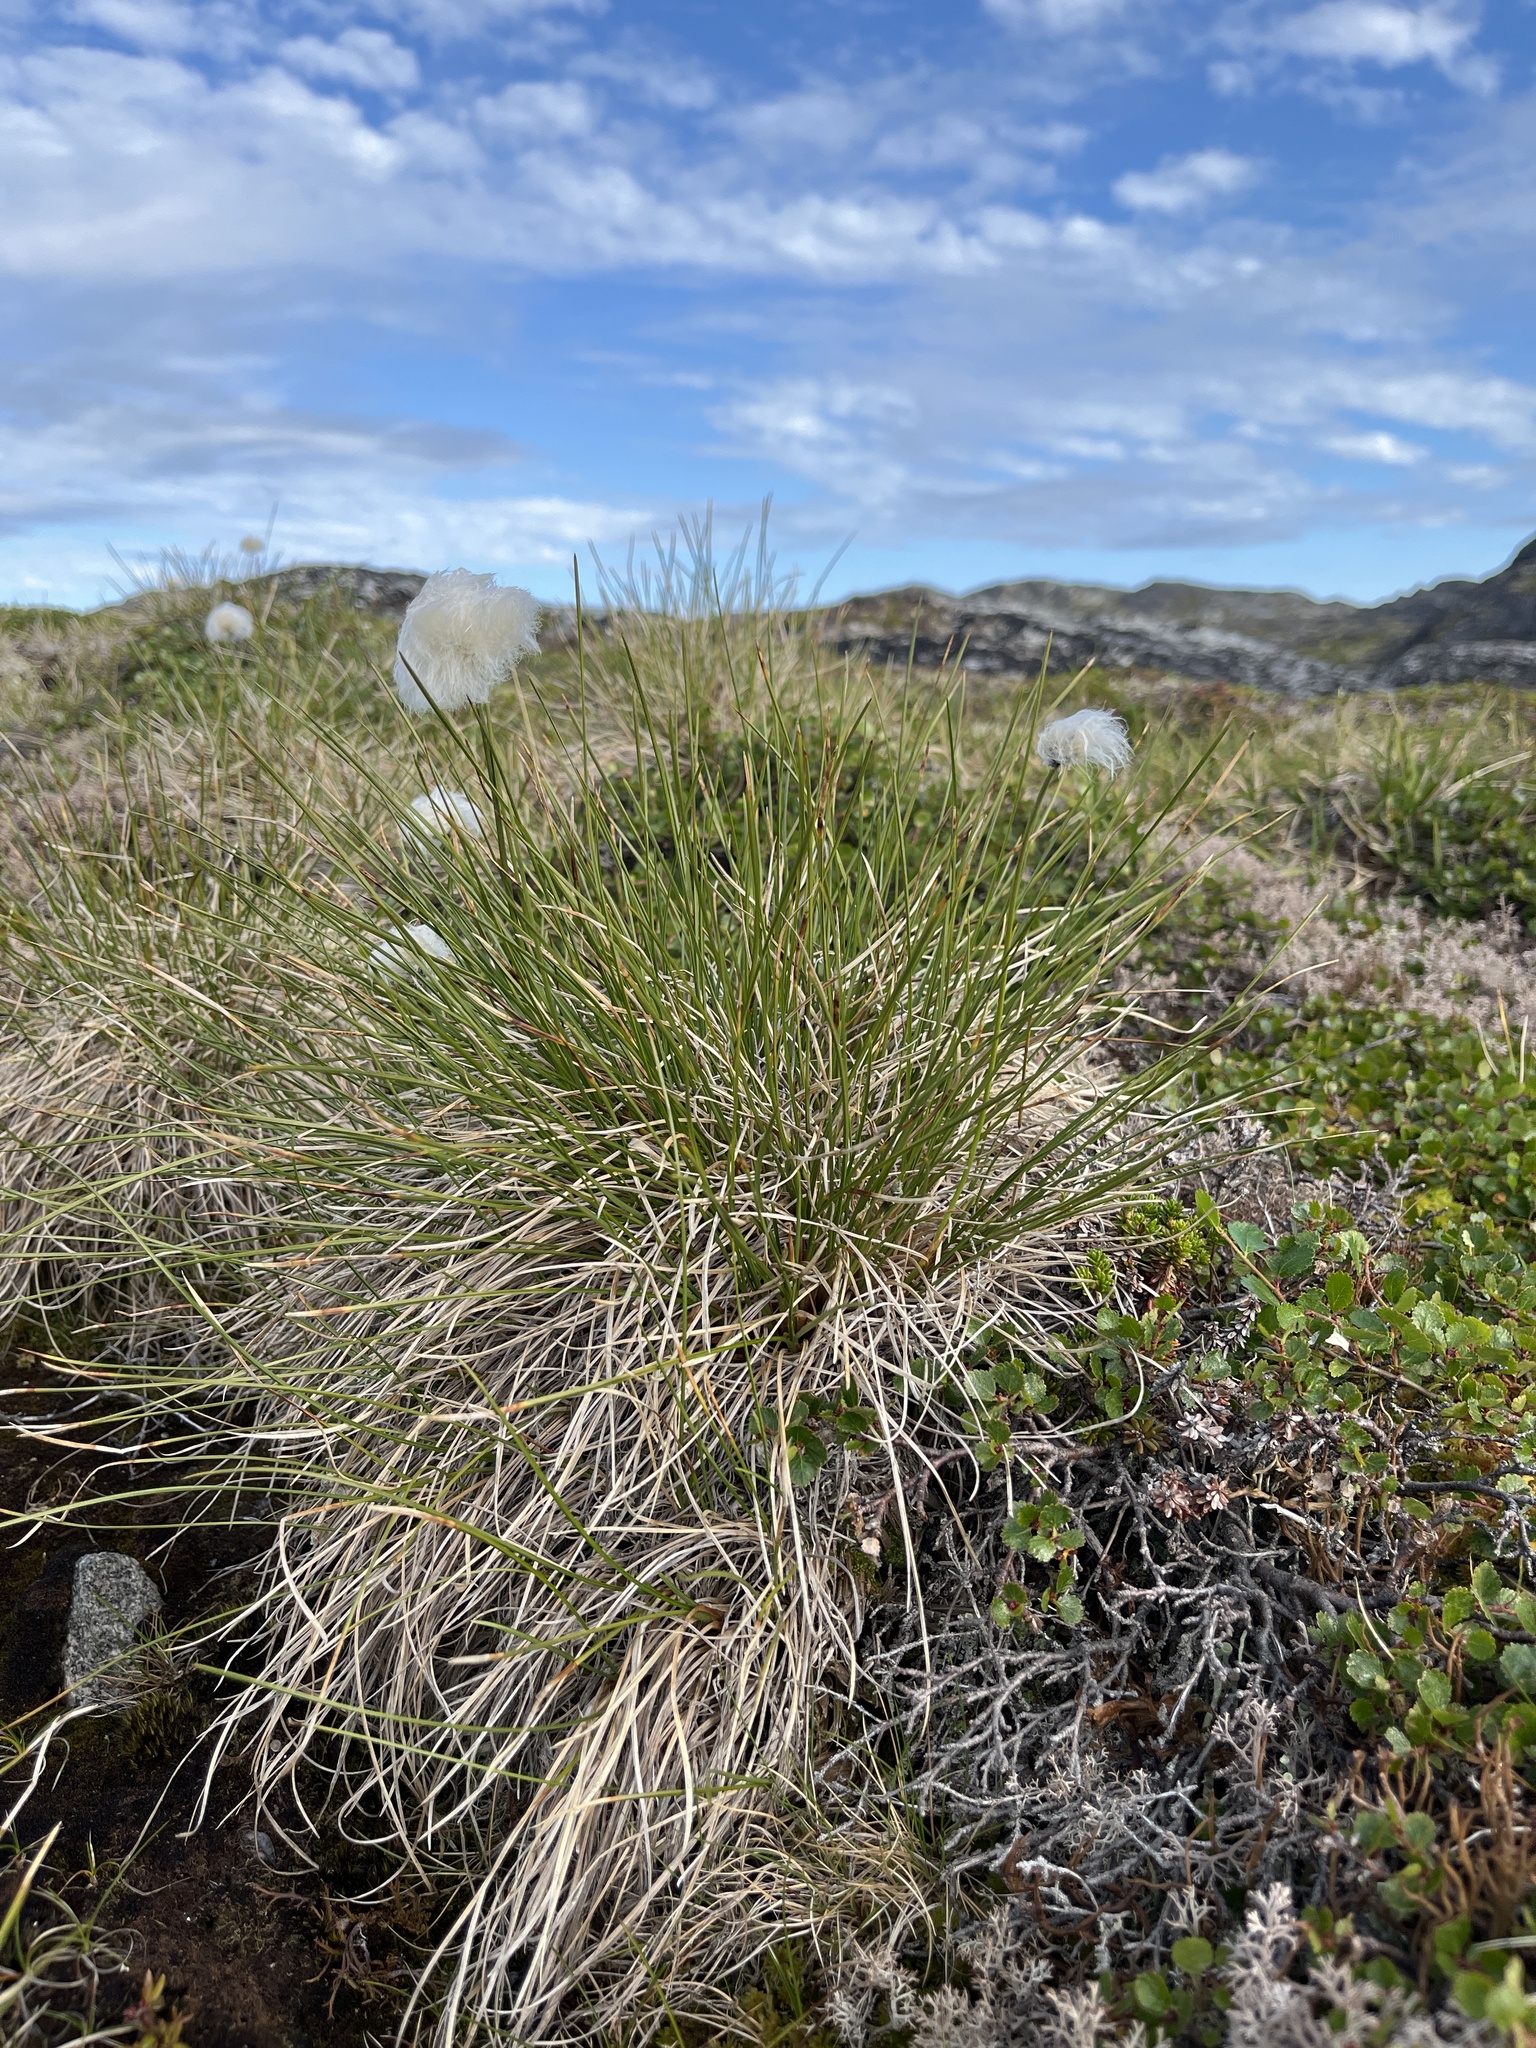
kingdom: Plantae
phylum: Tracheophyta
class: Liliopsida
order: Poales
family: Cyperaceae
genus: Eriophorum
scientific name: Eriophorum vaginatum
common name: Hare's-tail cottongrass
